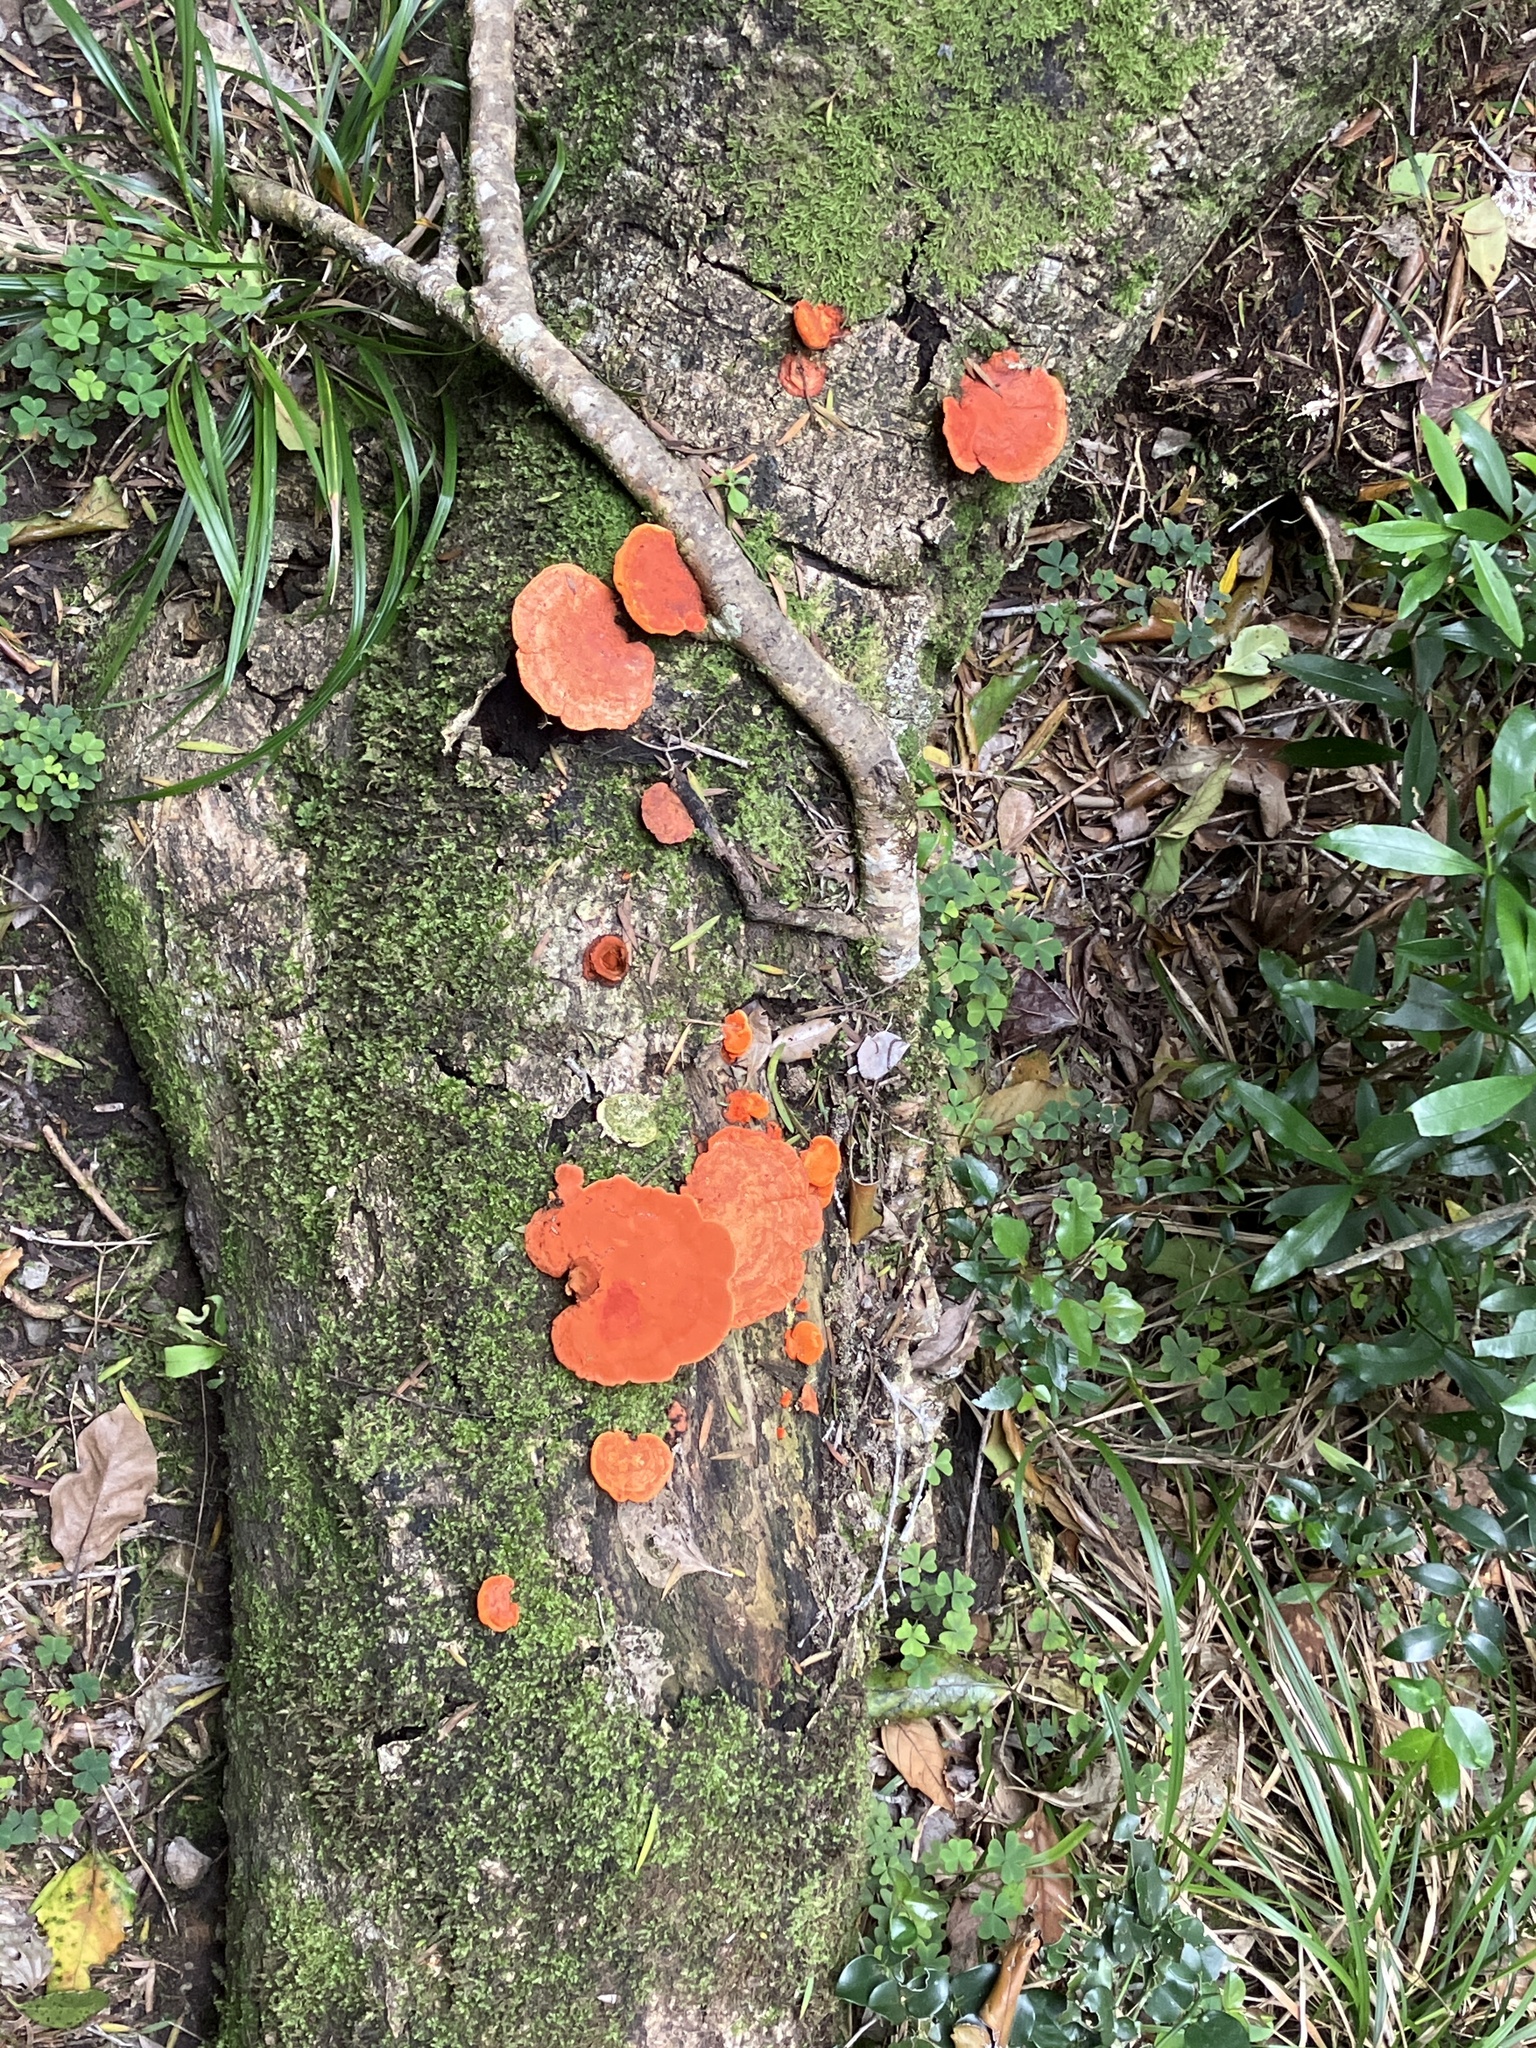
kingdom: Fungi
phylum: Basidiomycota
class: Agaricomycetes
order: Polyporales
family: Polyporaceae
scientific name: Polyporaceae
